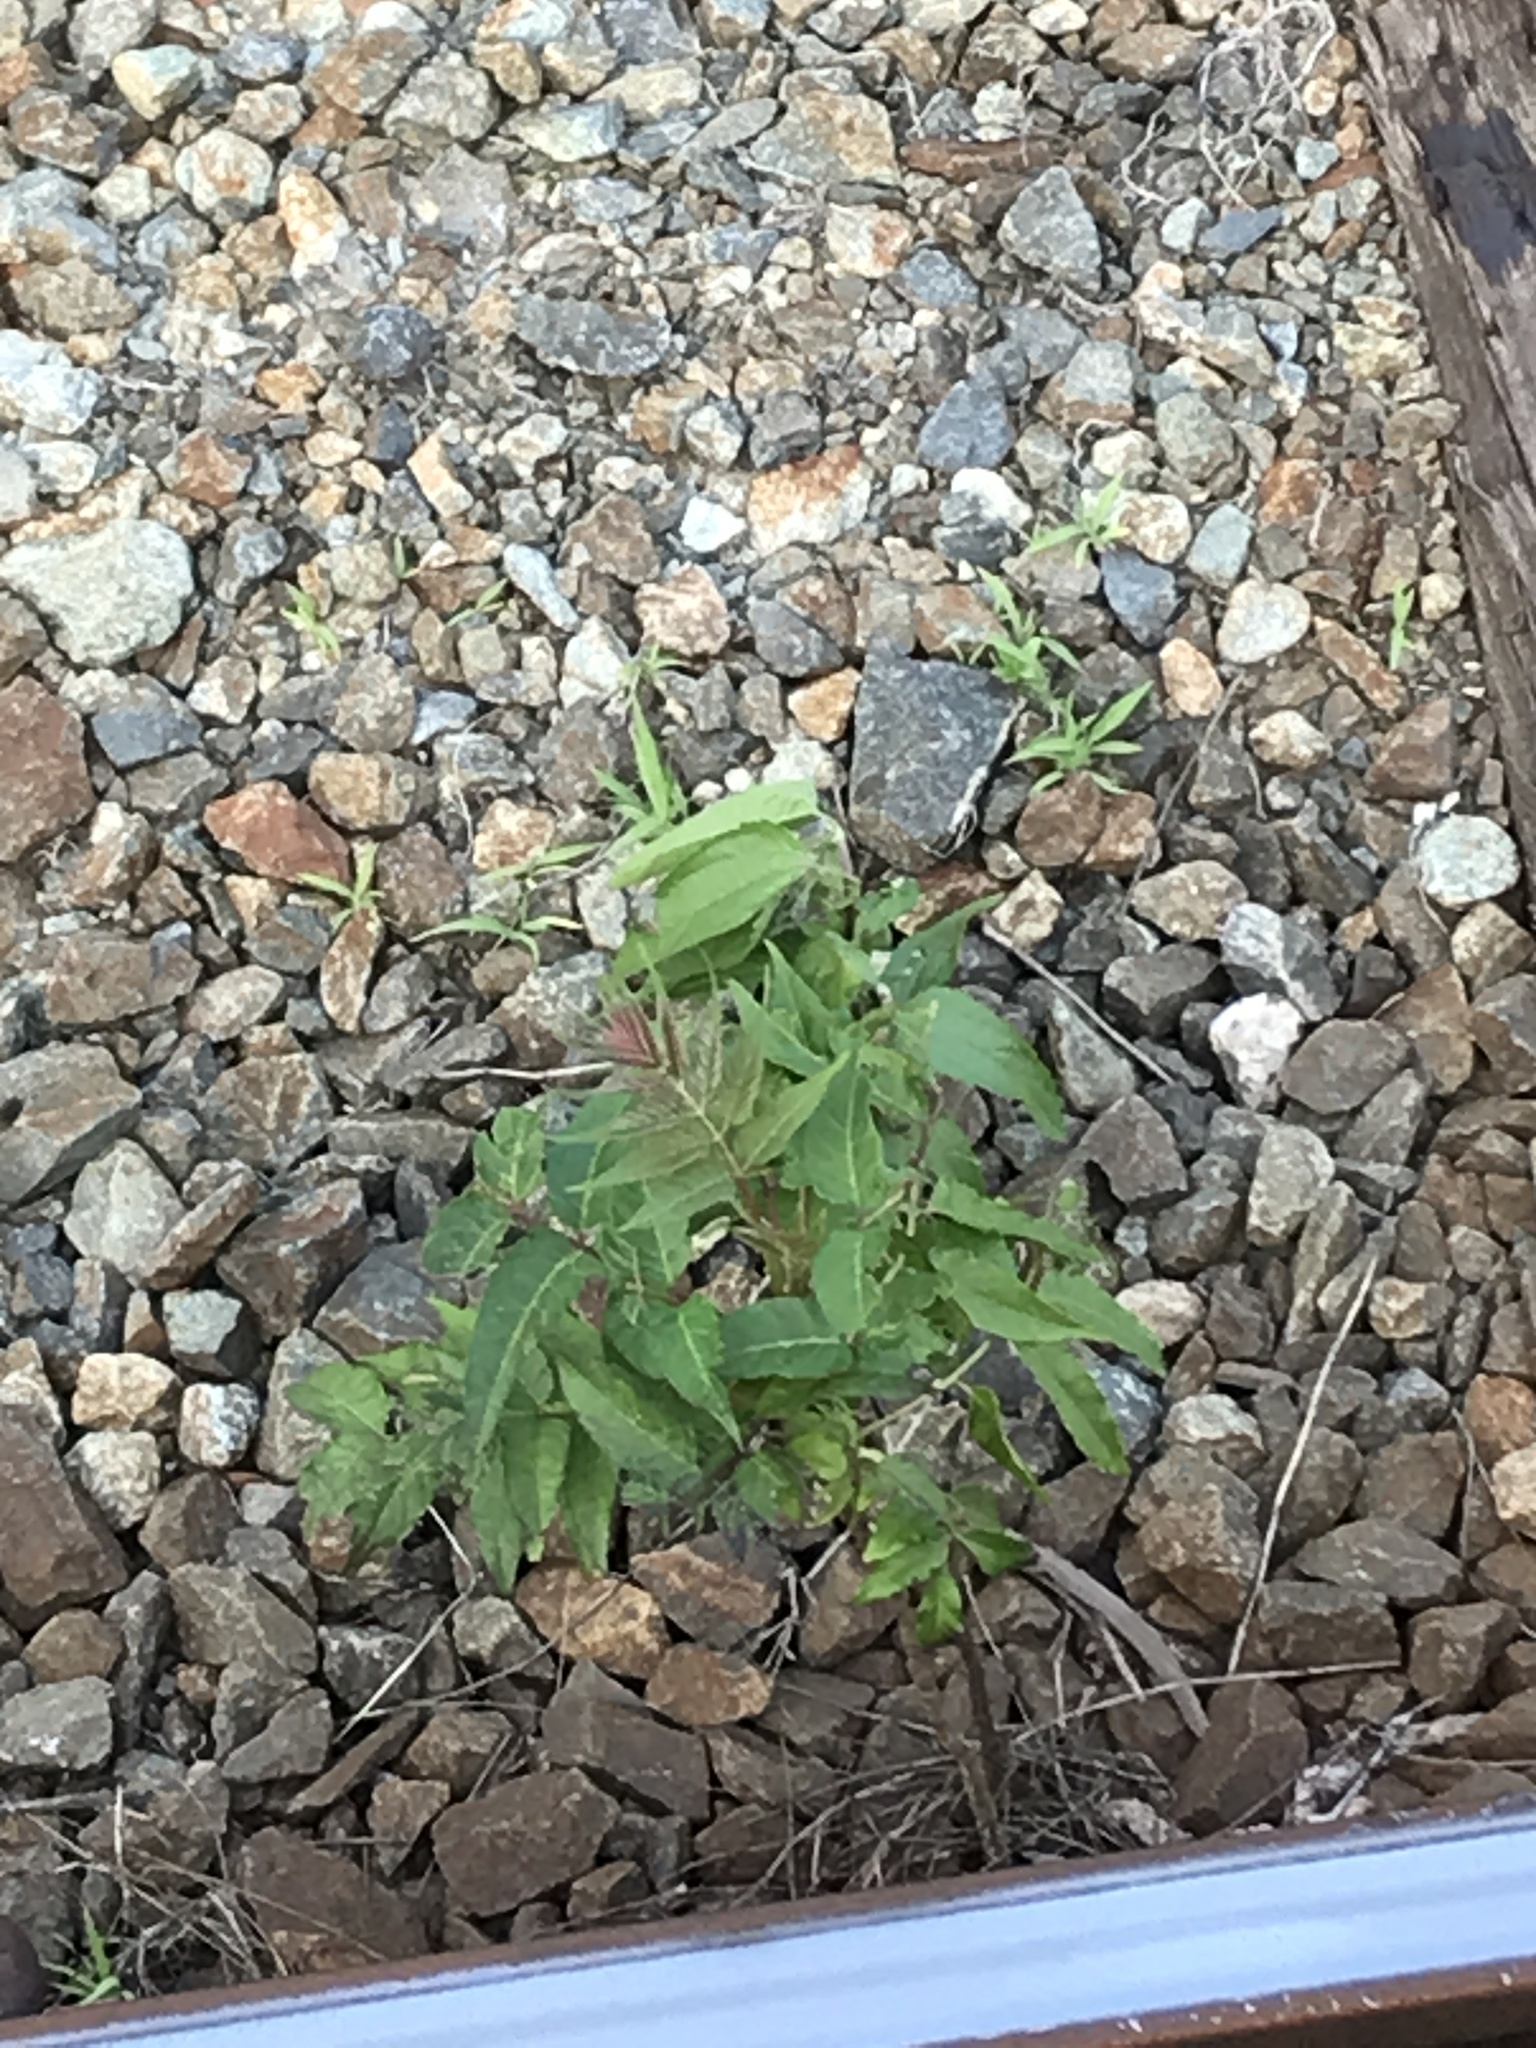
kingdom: Plantae
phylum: Tracheophyta
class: Magnoliopsida
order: Sapindales
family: Simaroubaceae
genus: Ailanthus
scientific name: Ailanthus altissima
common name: Tree-of-heaven
